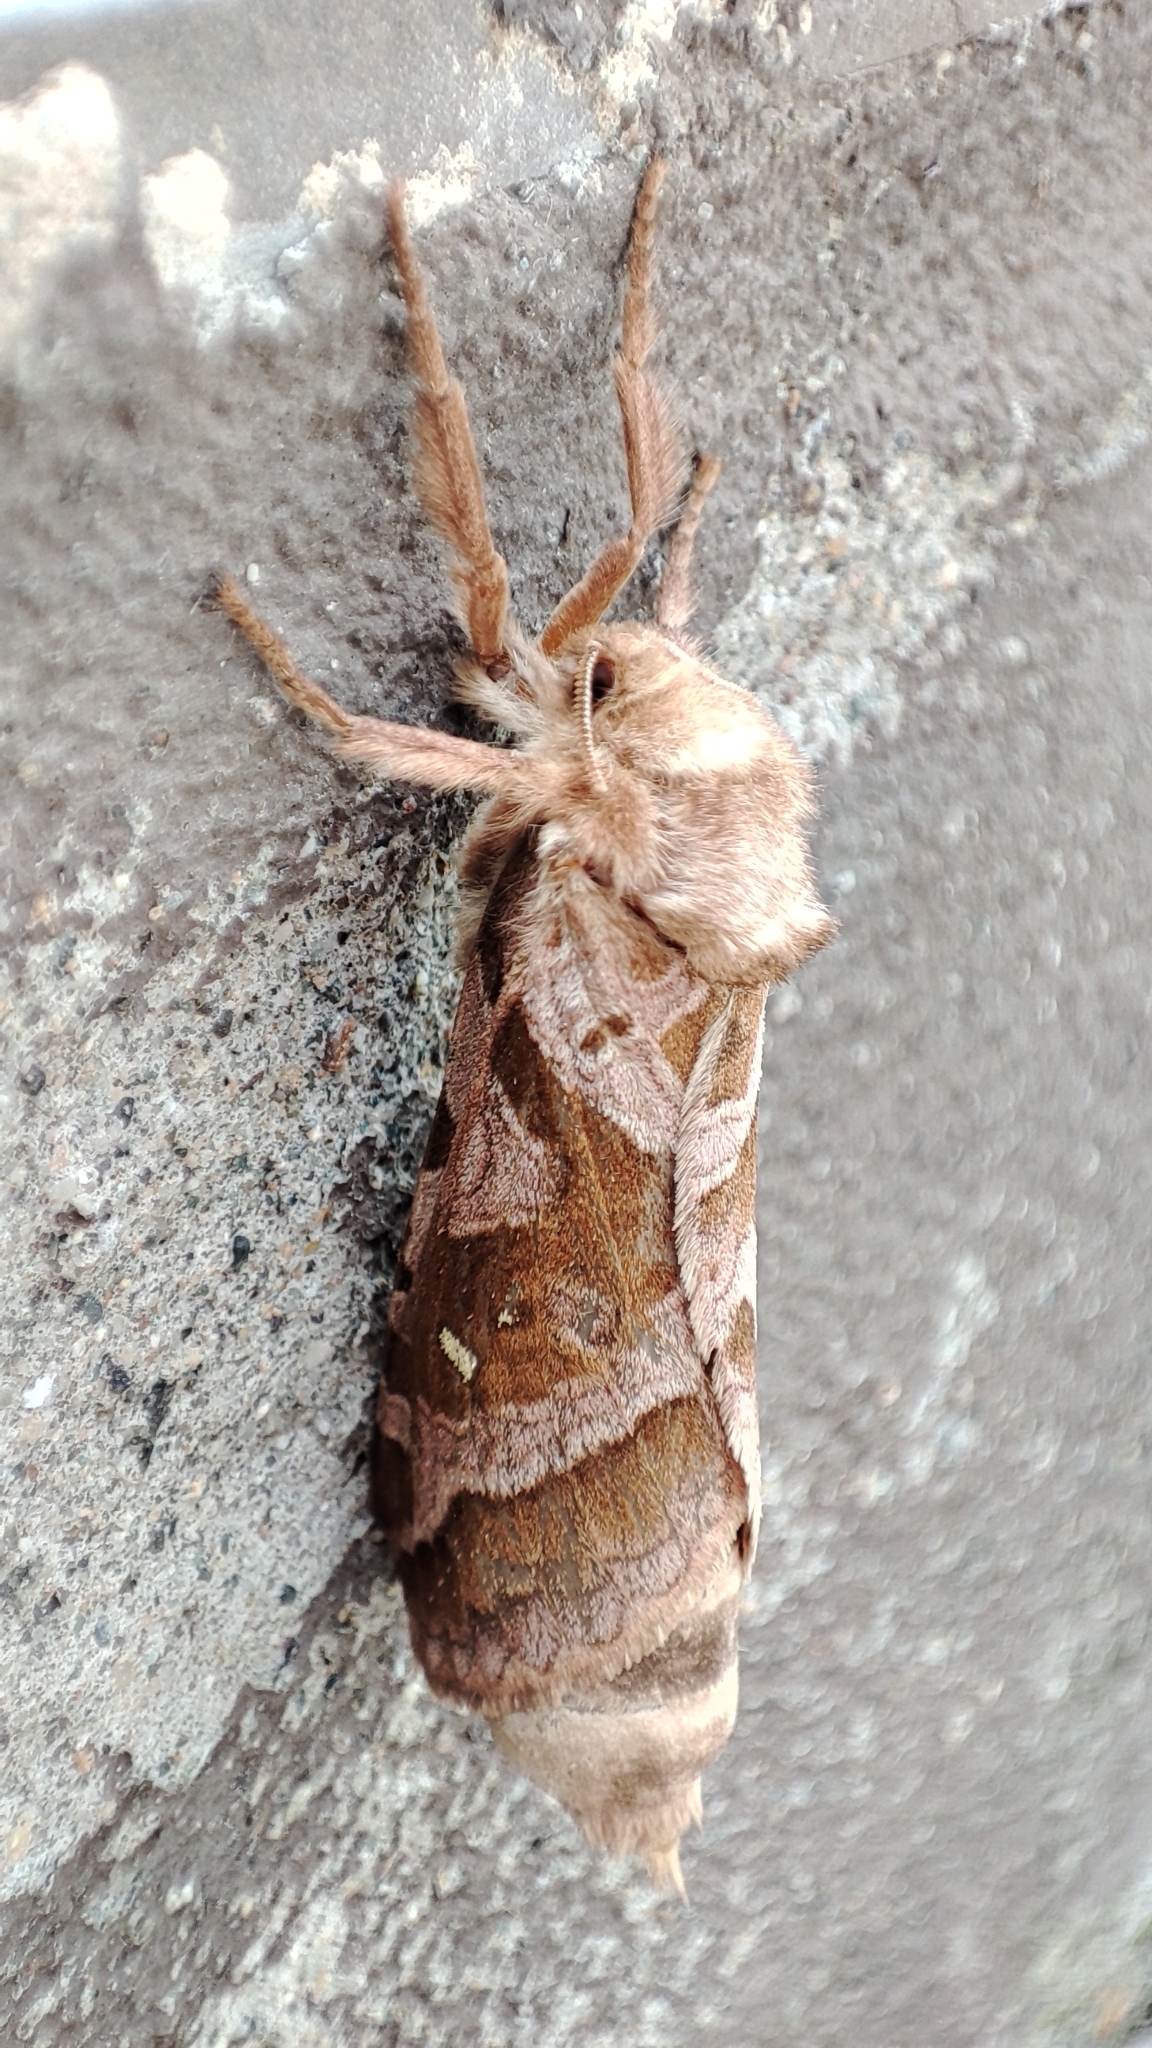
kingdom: Animalia
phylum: Arthropoda
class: Insecta
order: Lepidoptera
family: Hepialidae
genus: Triodia
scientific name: Triodia nubifer
